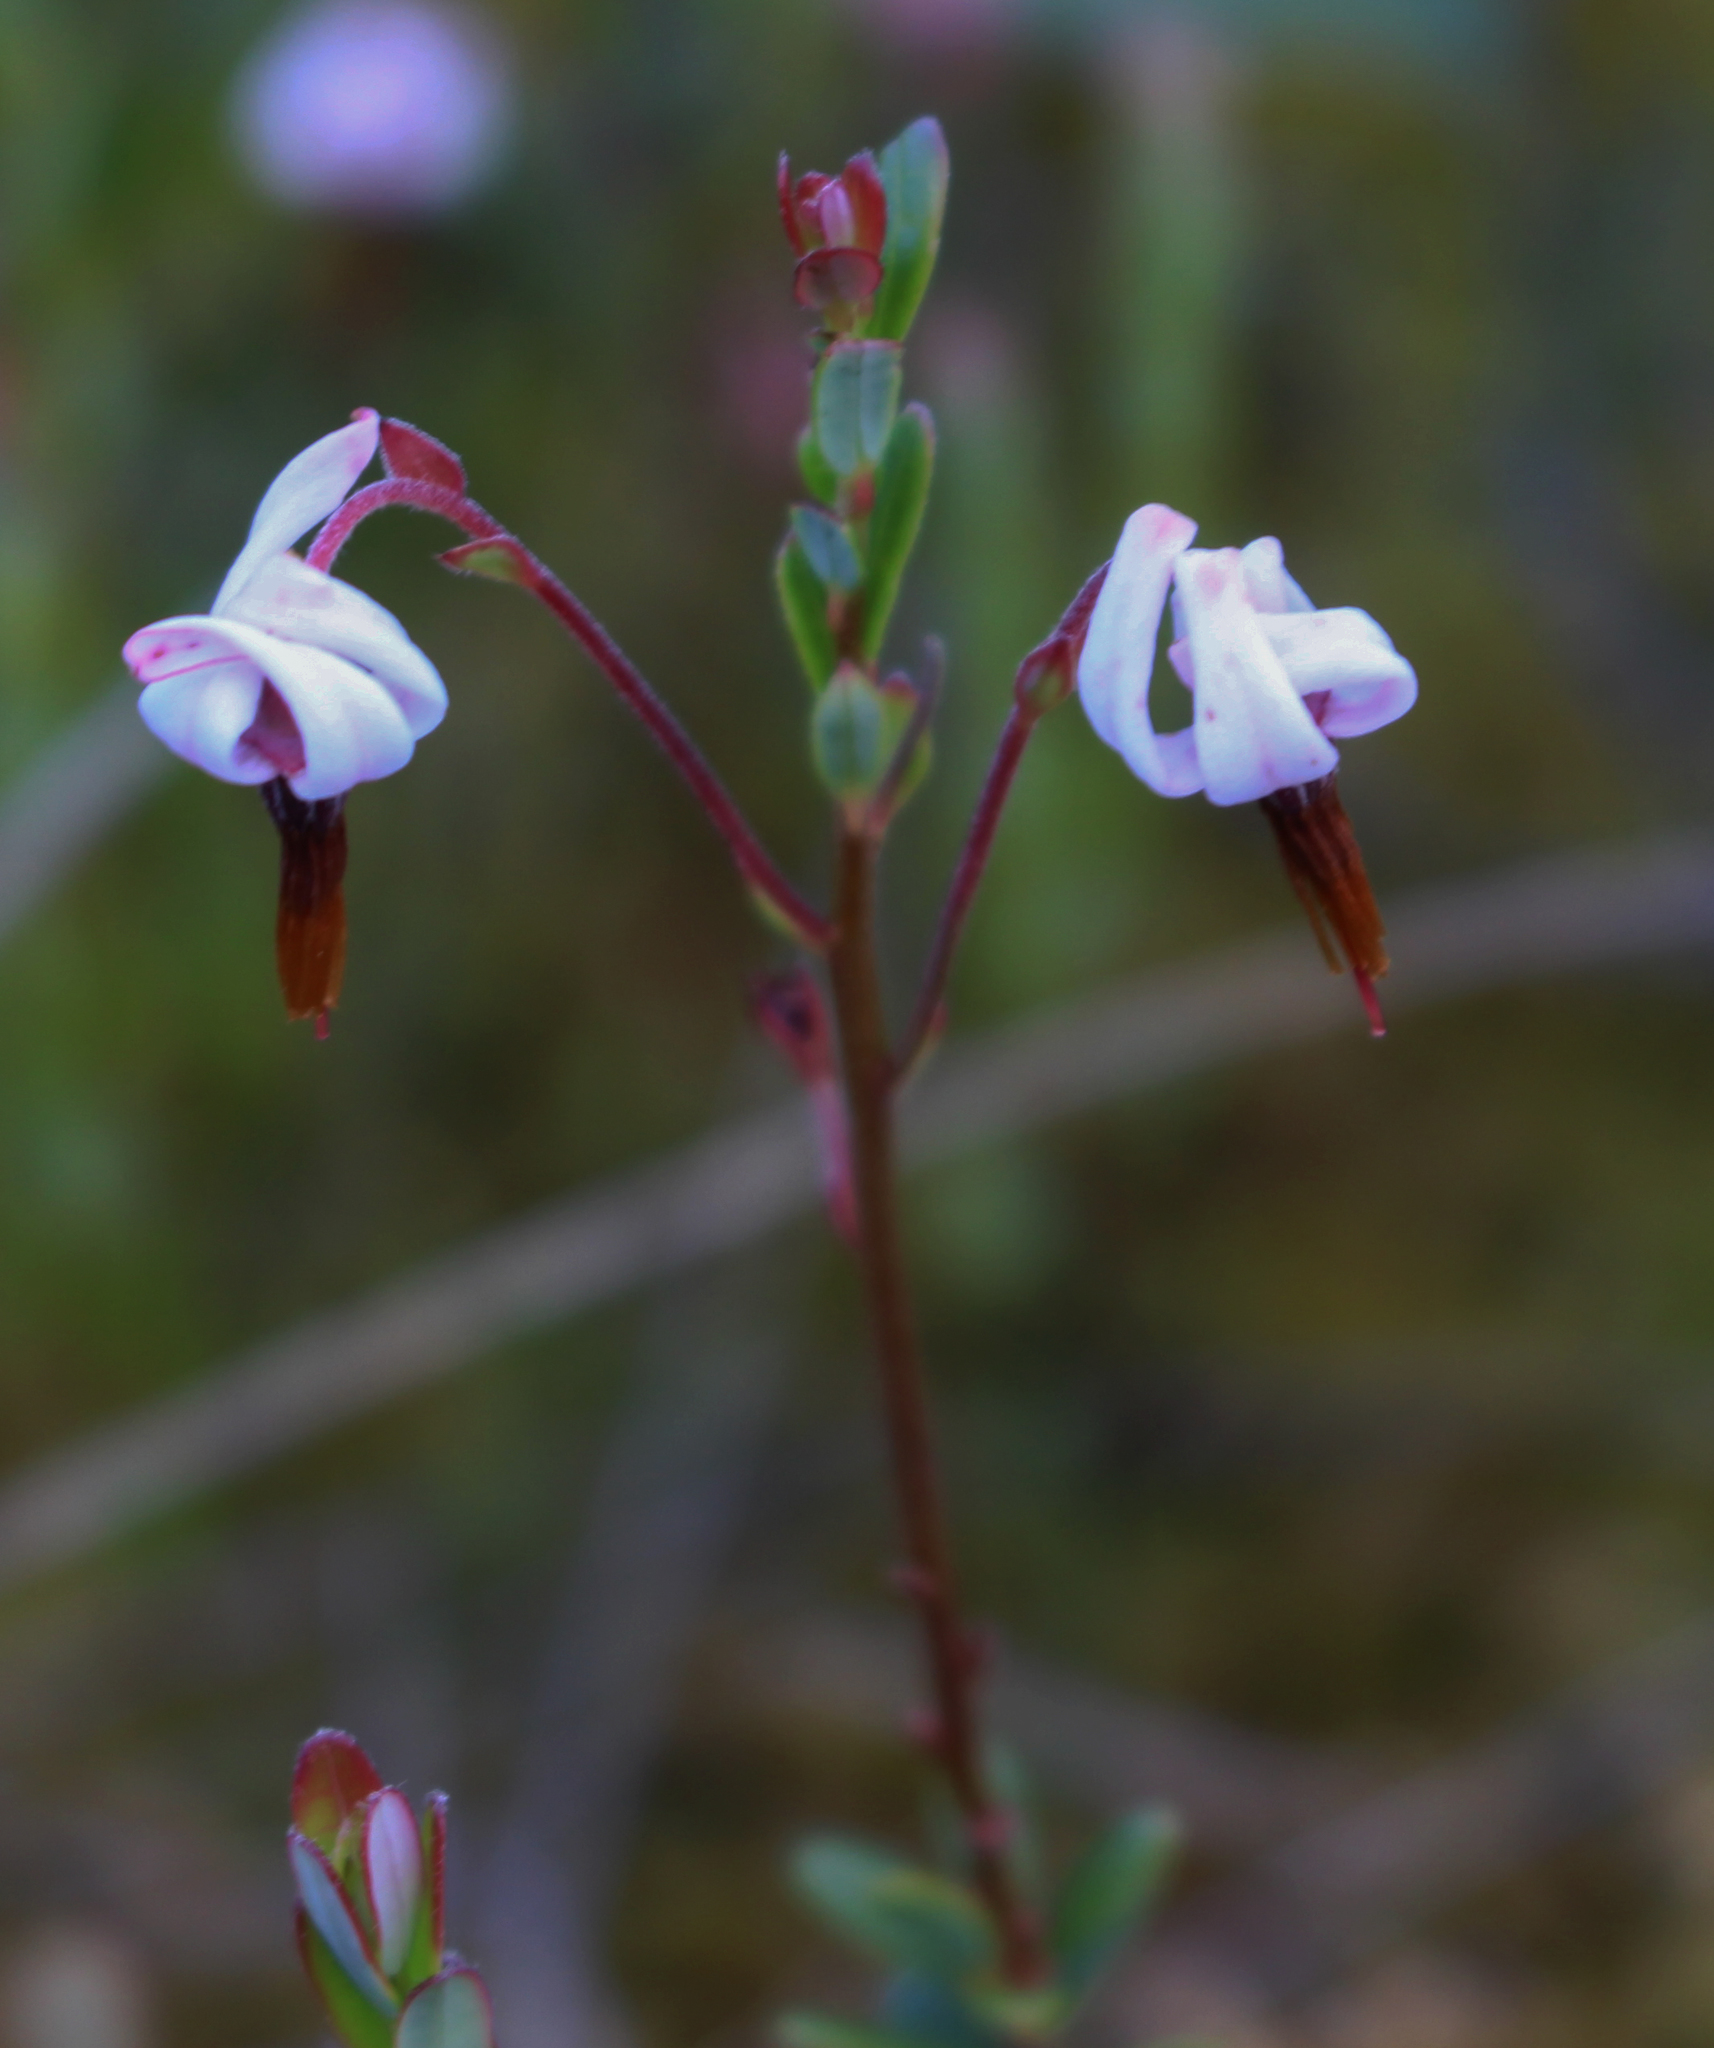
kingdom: Plantae
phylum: Tracheophyta
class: Magnoliopsida
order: Ericales
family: Ericaceae
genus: Vaccinium
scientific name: Vaccinium macrocarpon
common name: American cranberry
